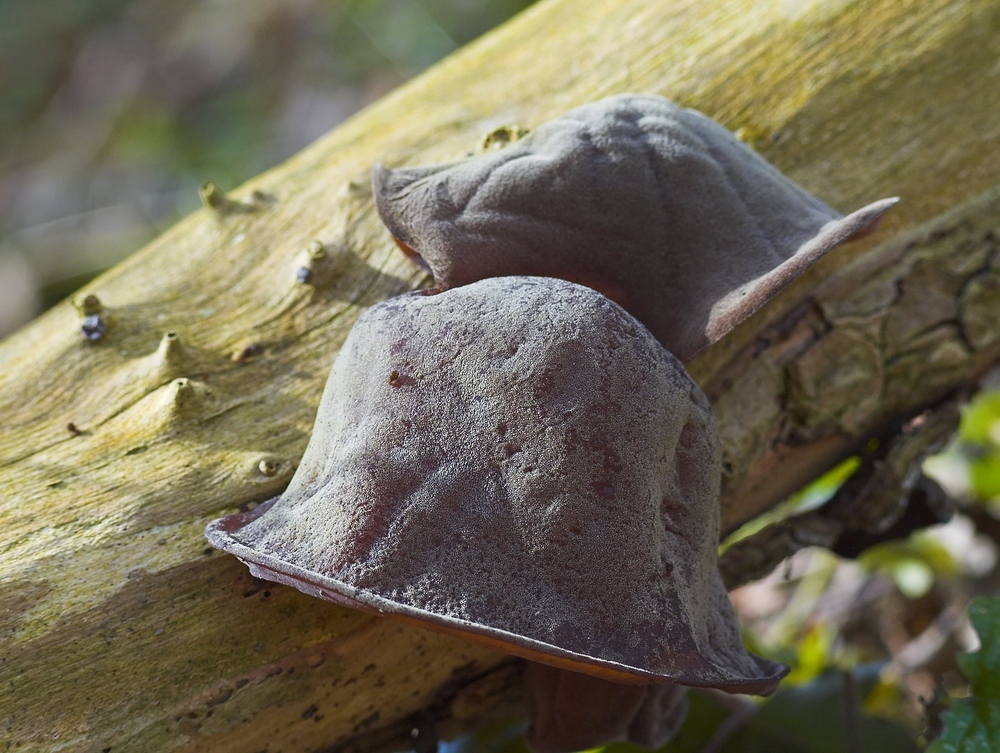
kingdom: Fungi
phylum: Basidiomycota
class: Agaricomycetes
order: Auriculariales
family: Auriculariaceae
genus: Auricularia
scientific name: Auricularia auricula-judae
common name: Jelly ear
